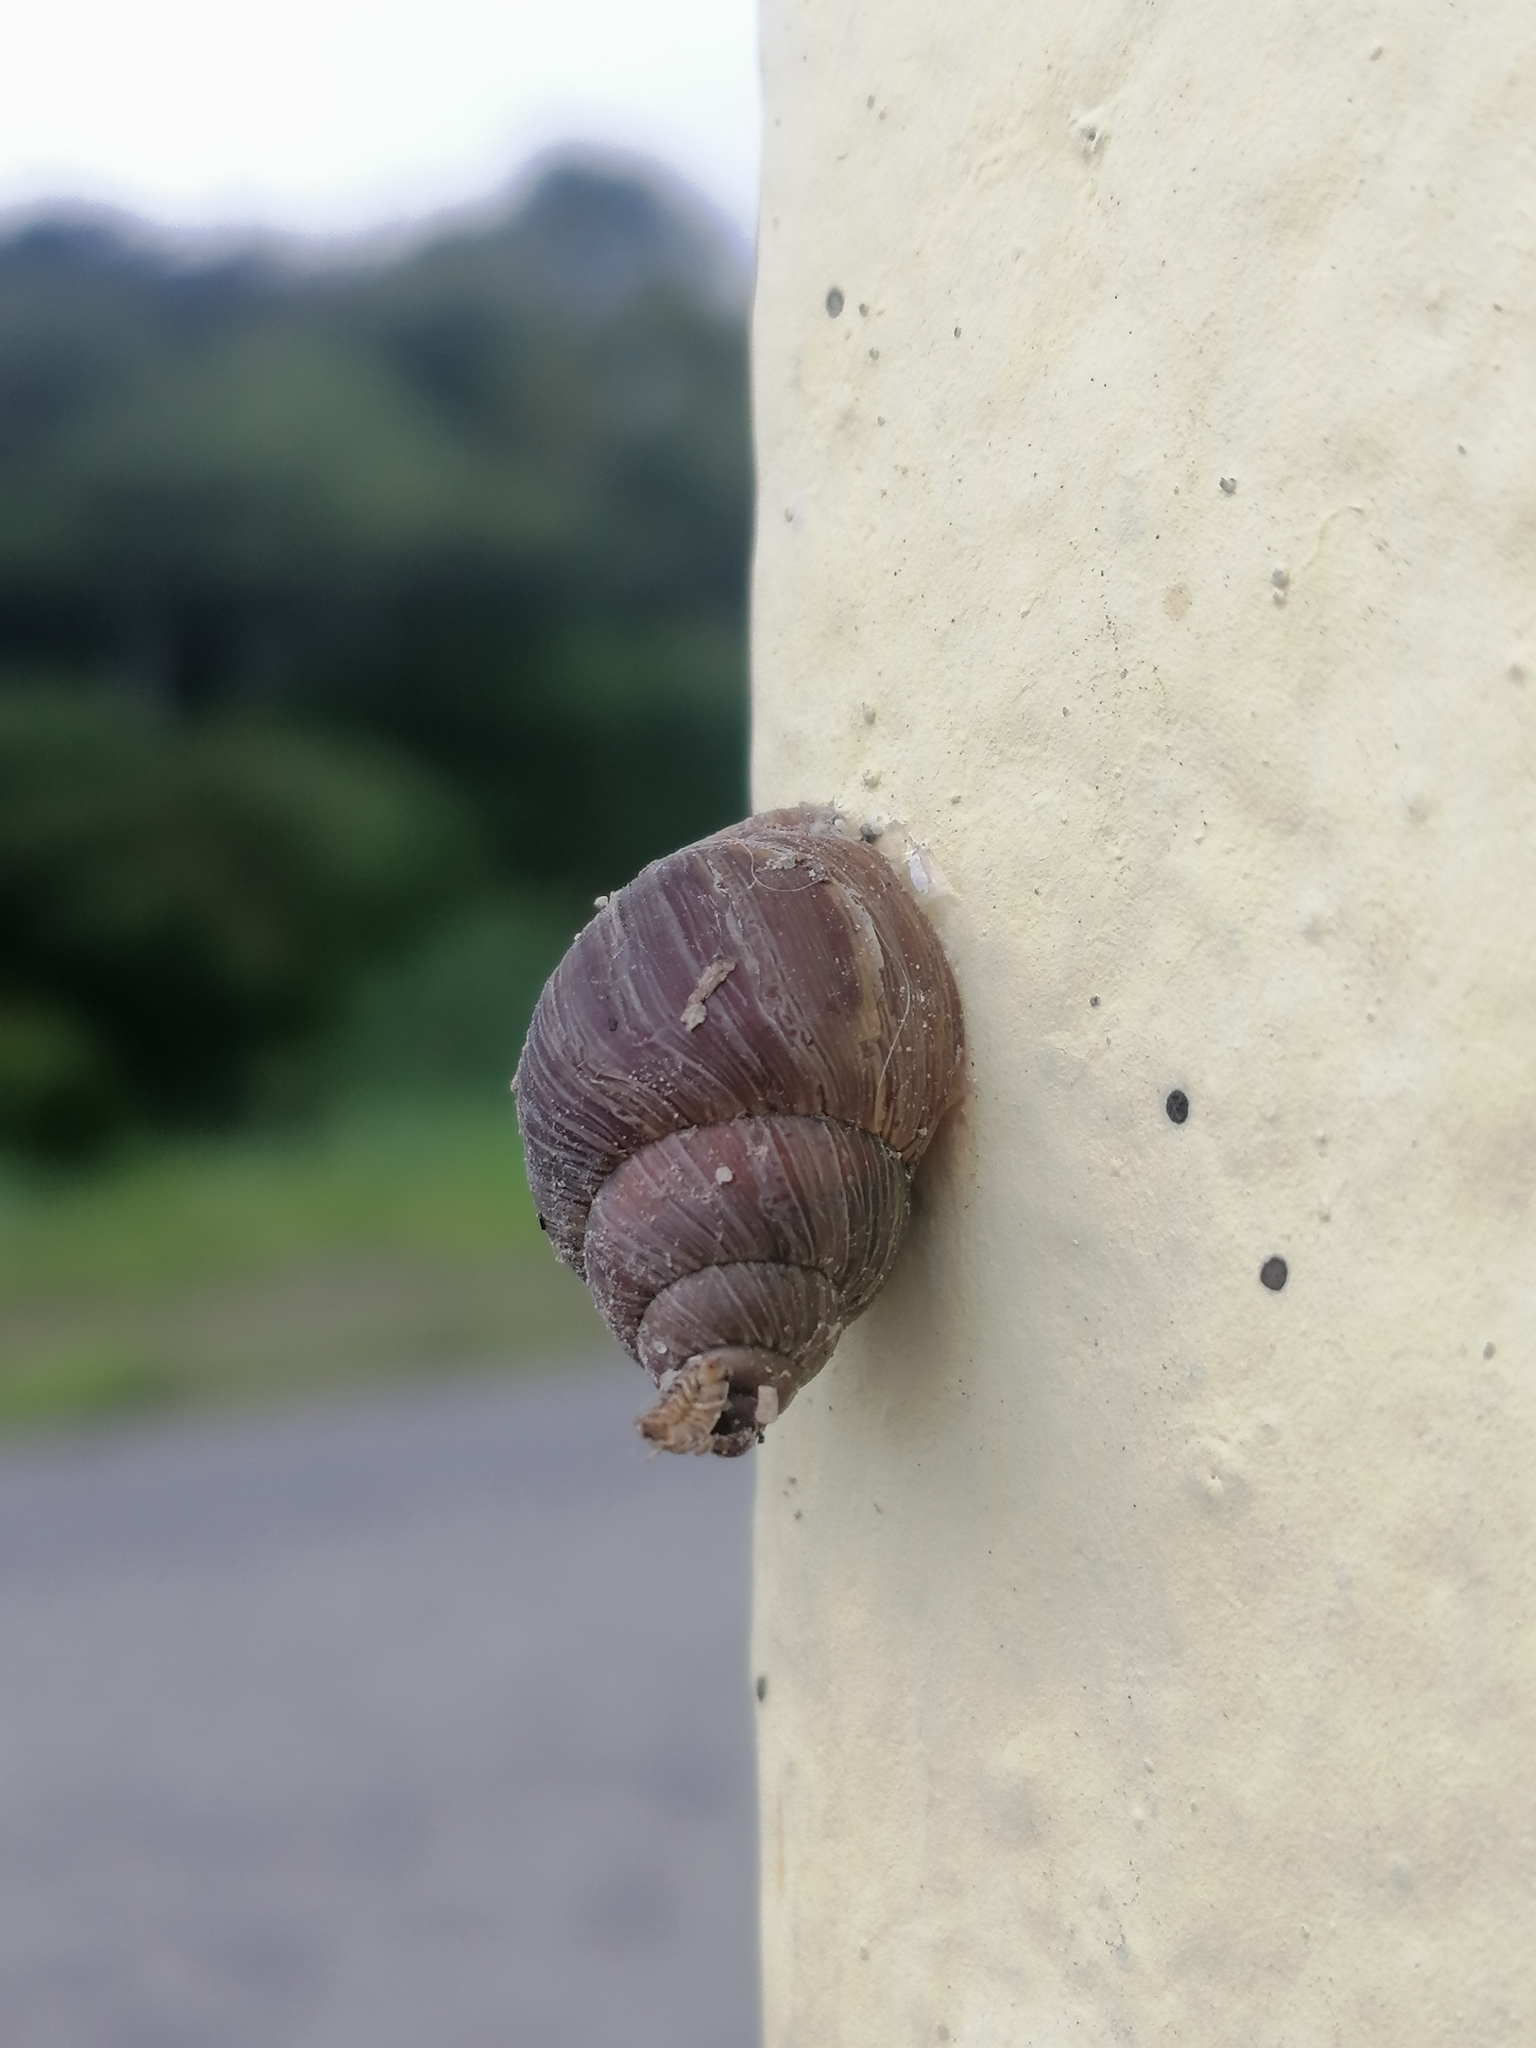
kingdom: Animalia
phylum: Mollusca
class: Gastropoda
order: Stylommatophora
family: Bulimulidae
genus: Naesiotus
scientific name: Naesiotus quitensis
